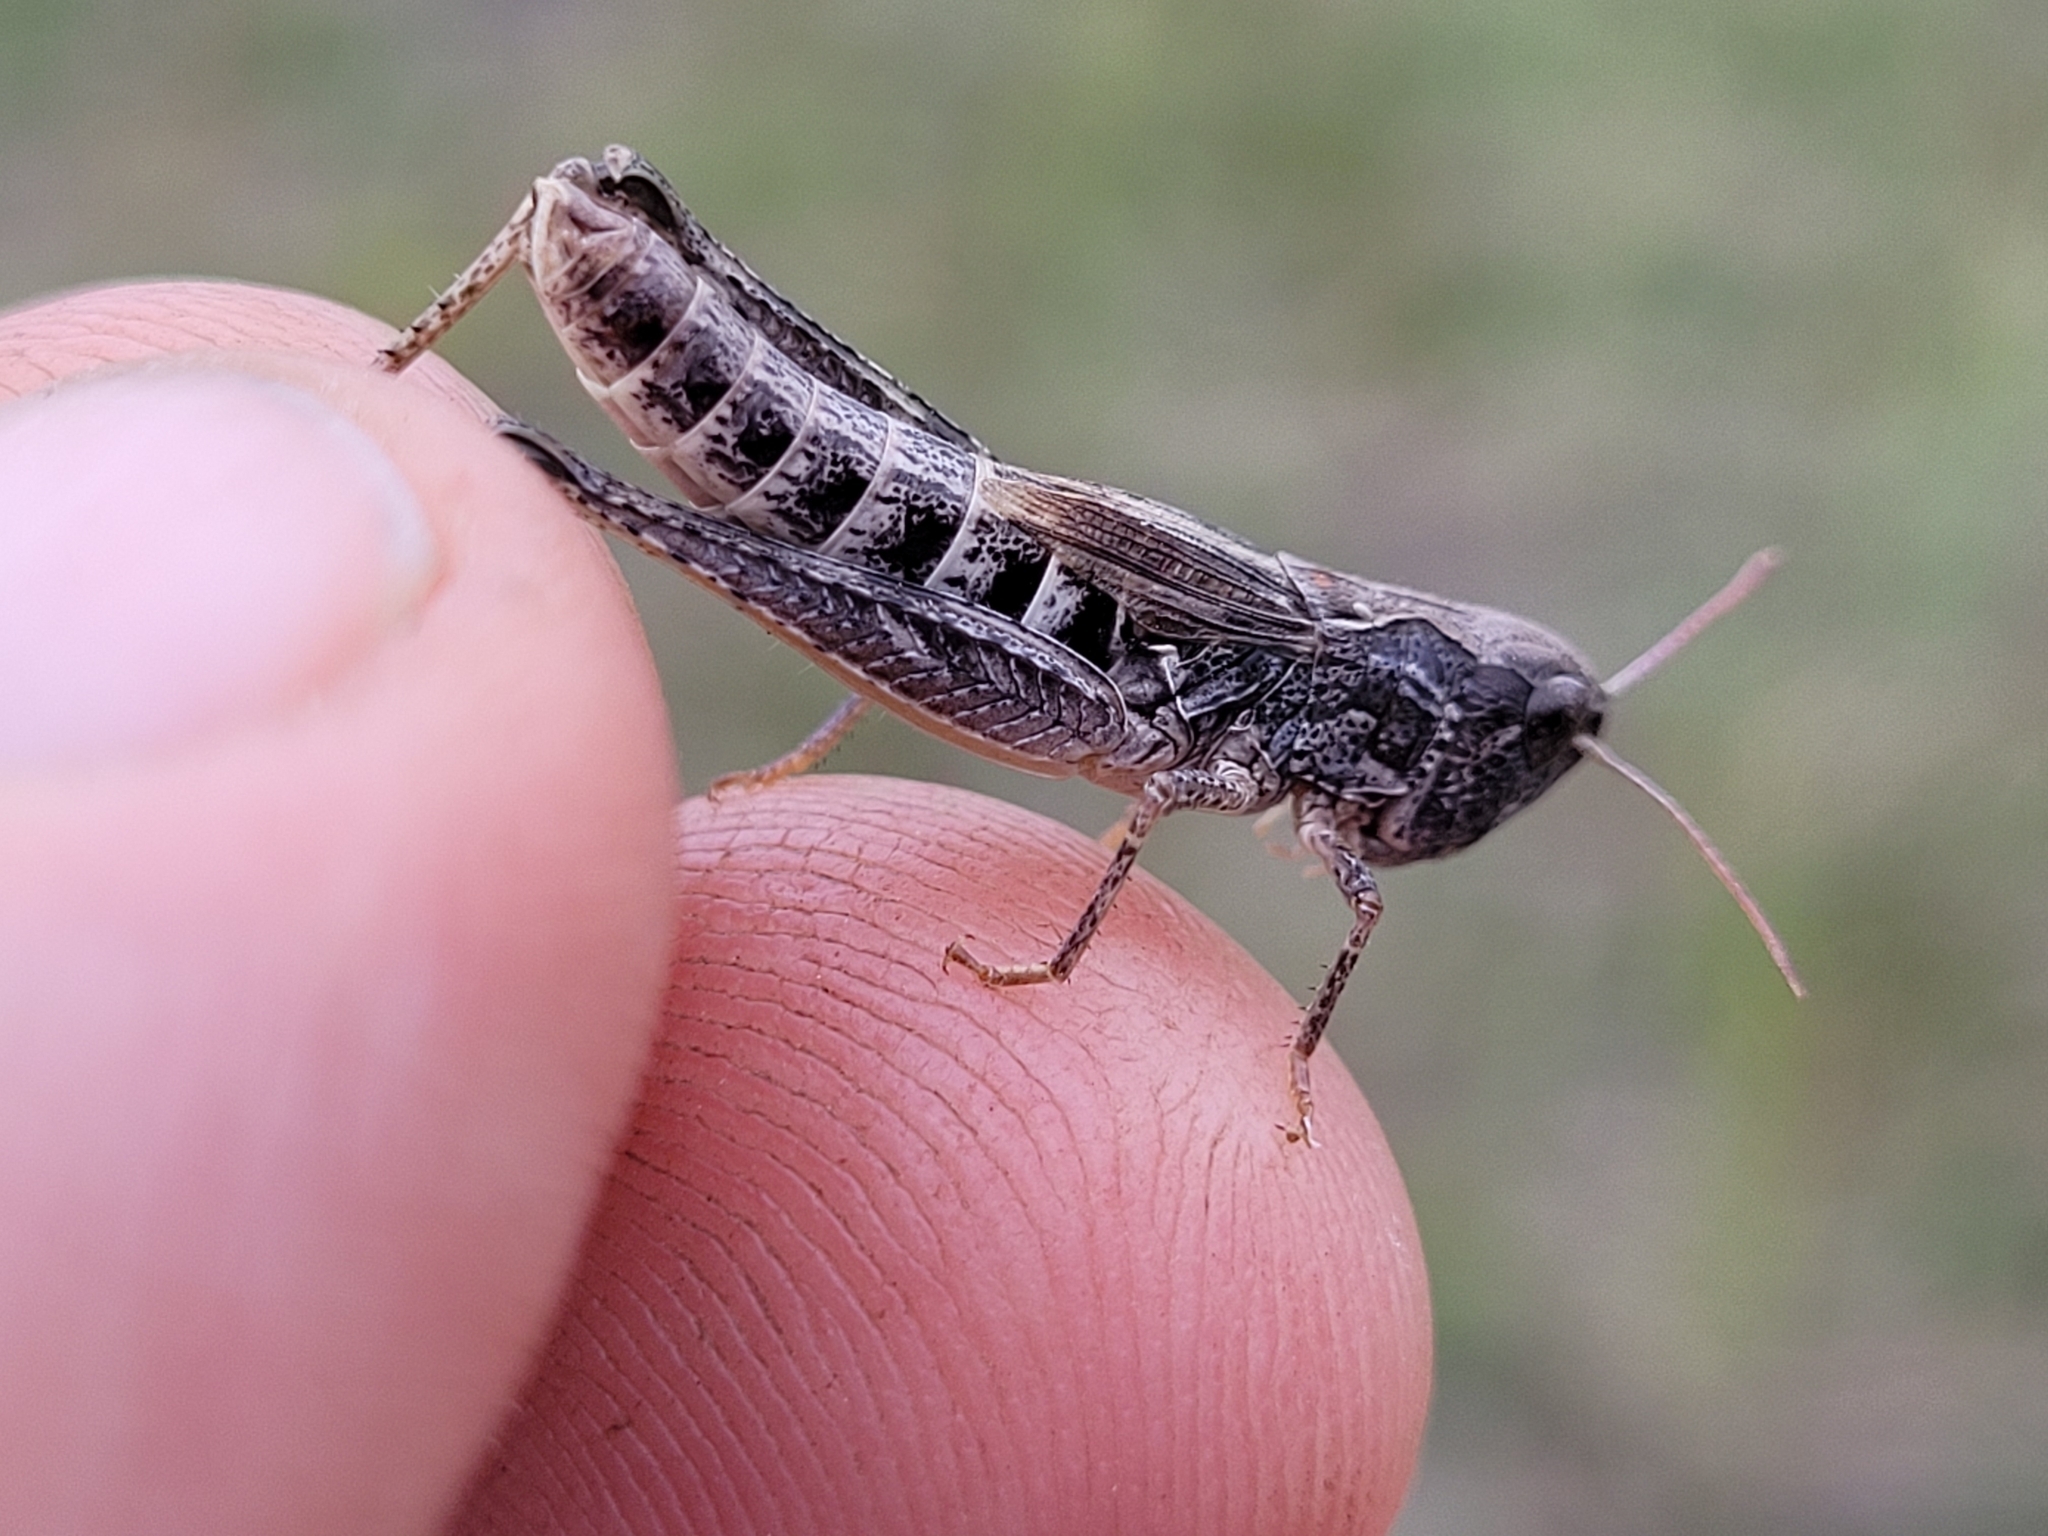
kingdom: Animalia
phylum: Arthropoda
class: Insecta
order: Orthoptera
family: Acrididae
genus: Aeropedellus
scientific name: Aeropedellus clavatus
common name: Clubhorned grasshopper
